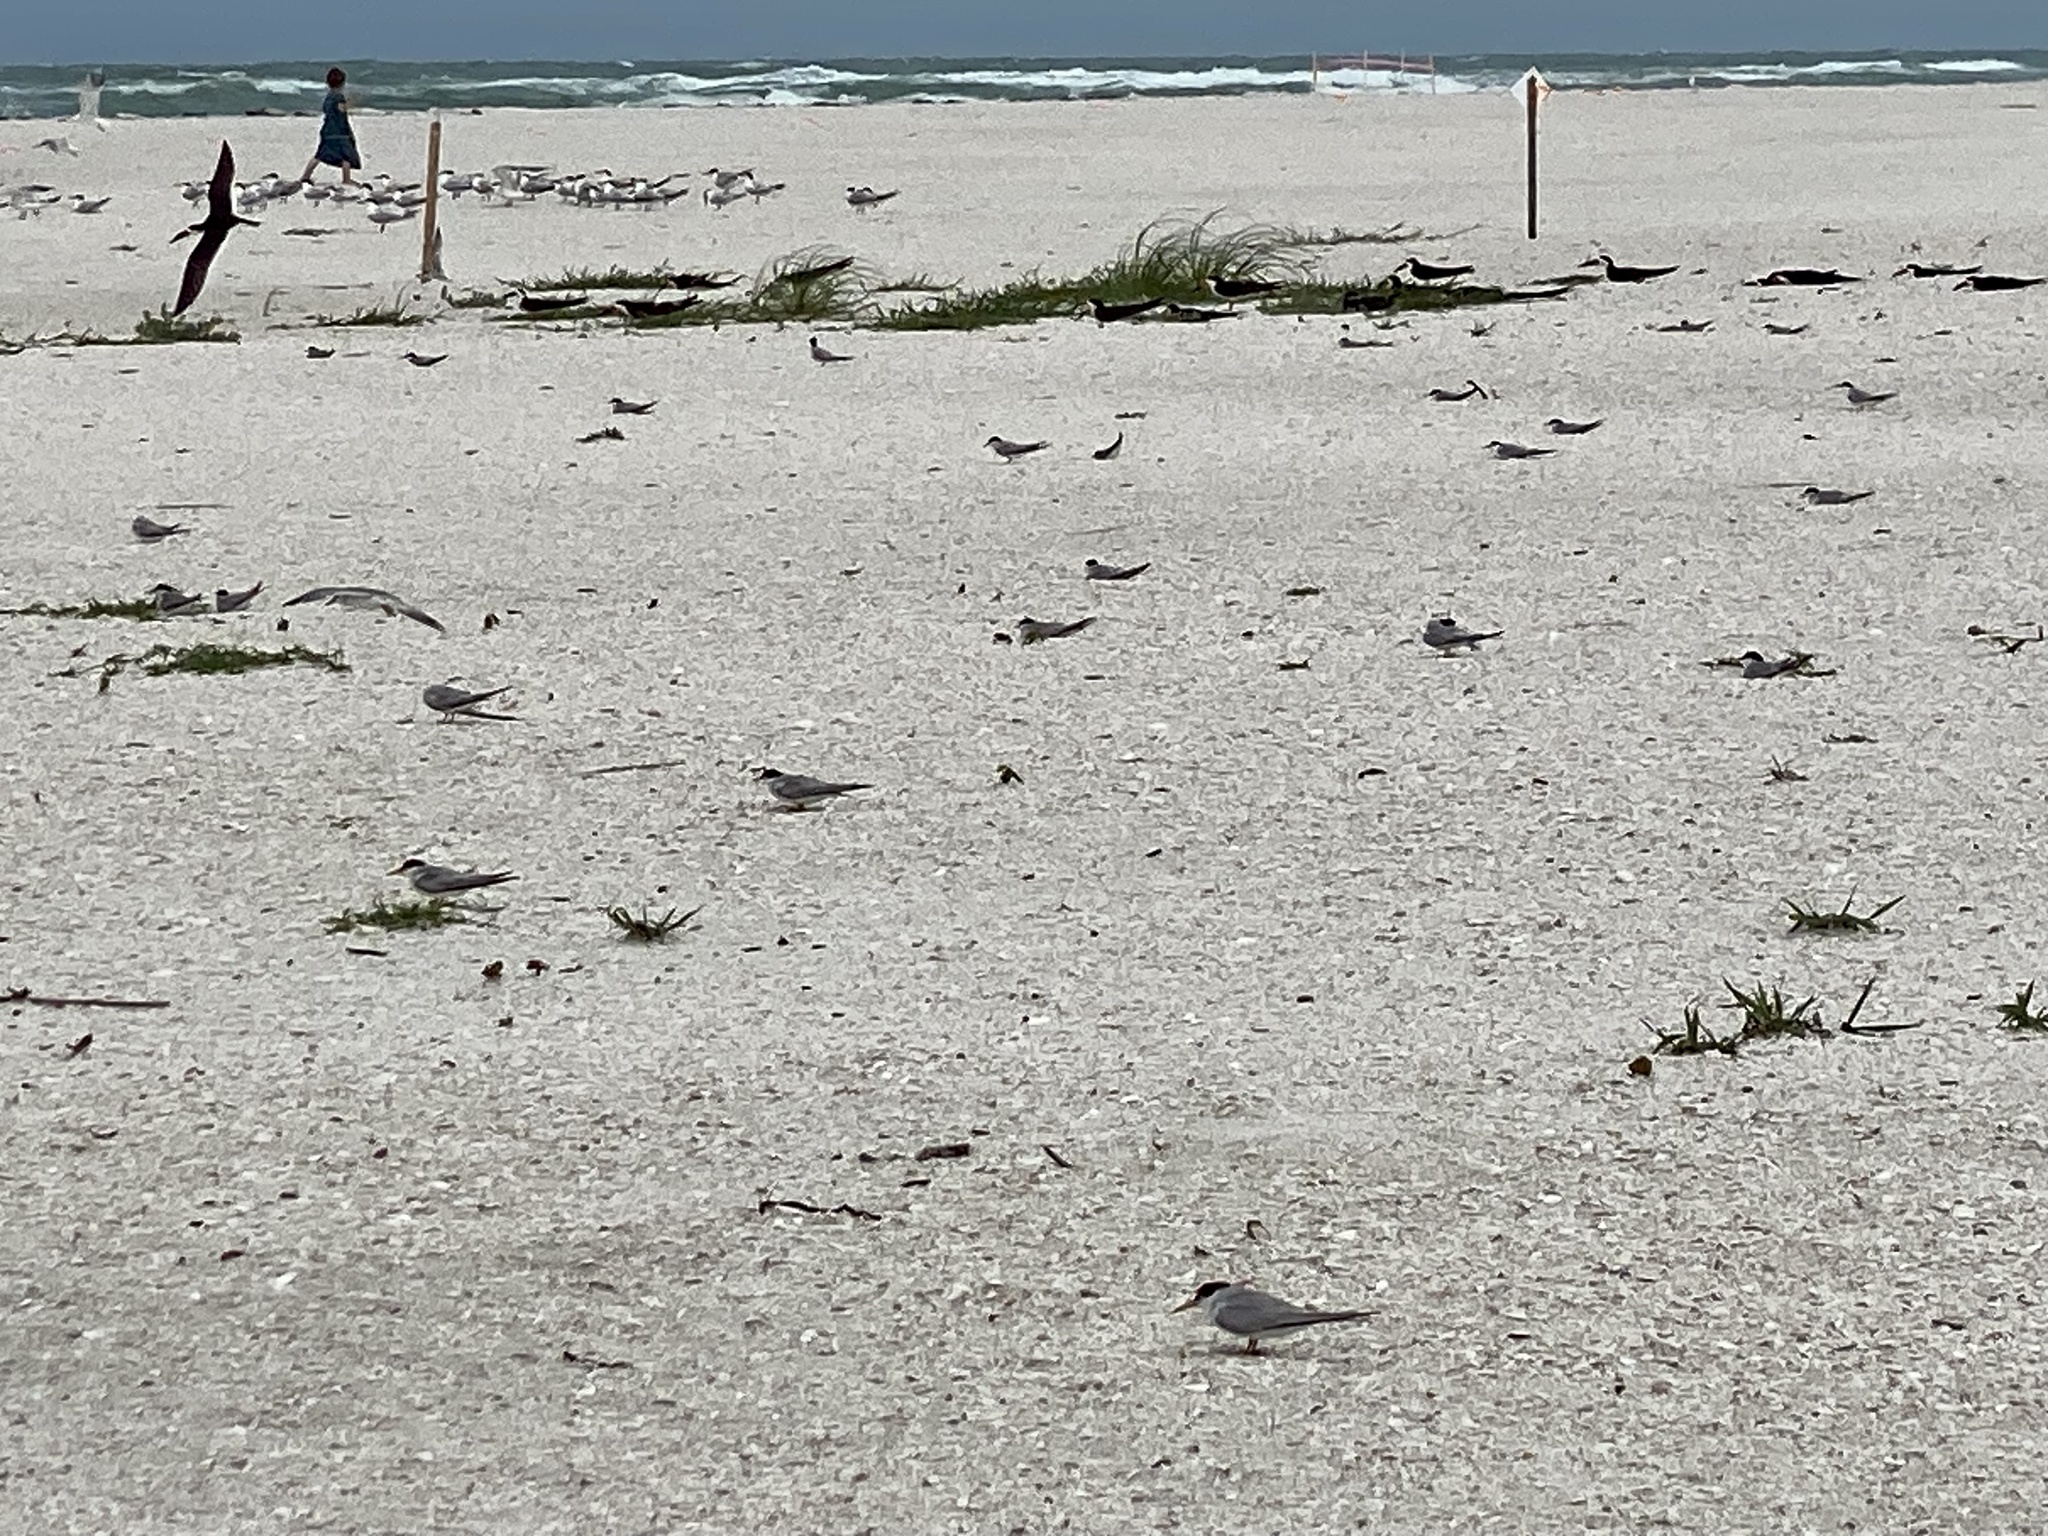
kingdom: Animalia
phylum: Chordata
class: Aves
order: Charadriiformes
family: Laridae
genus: Sternula
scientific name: Sternula antillarum
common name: Least tern
